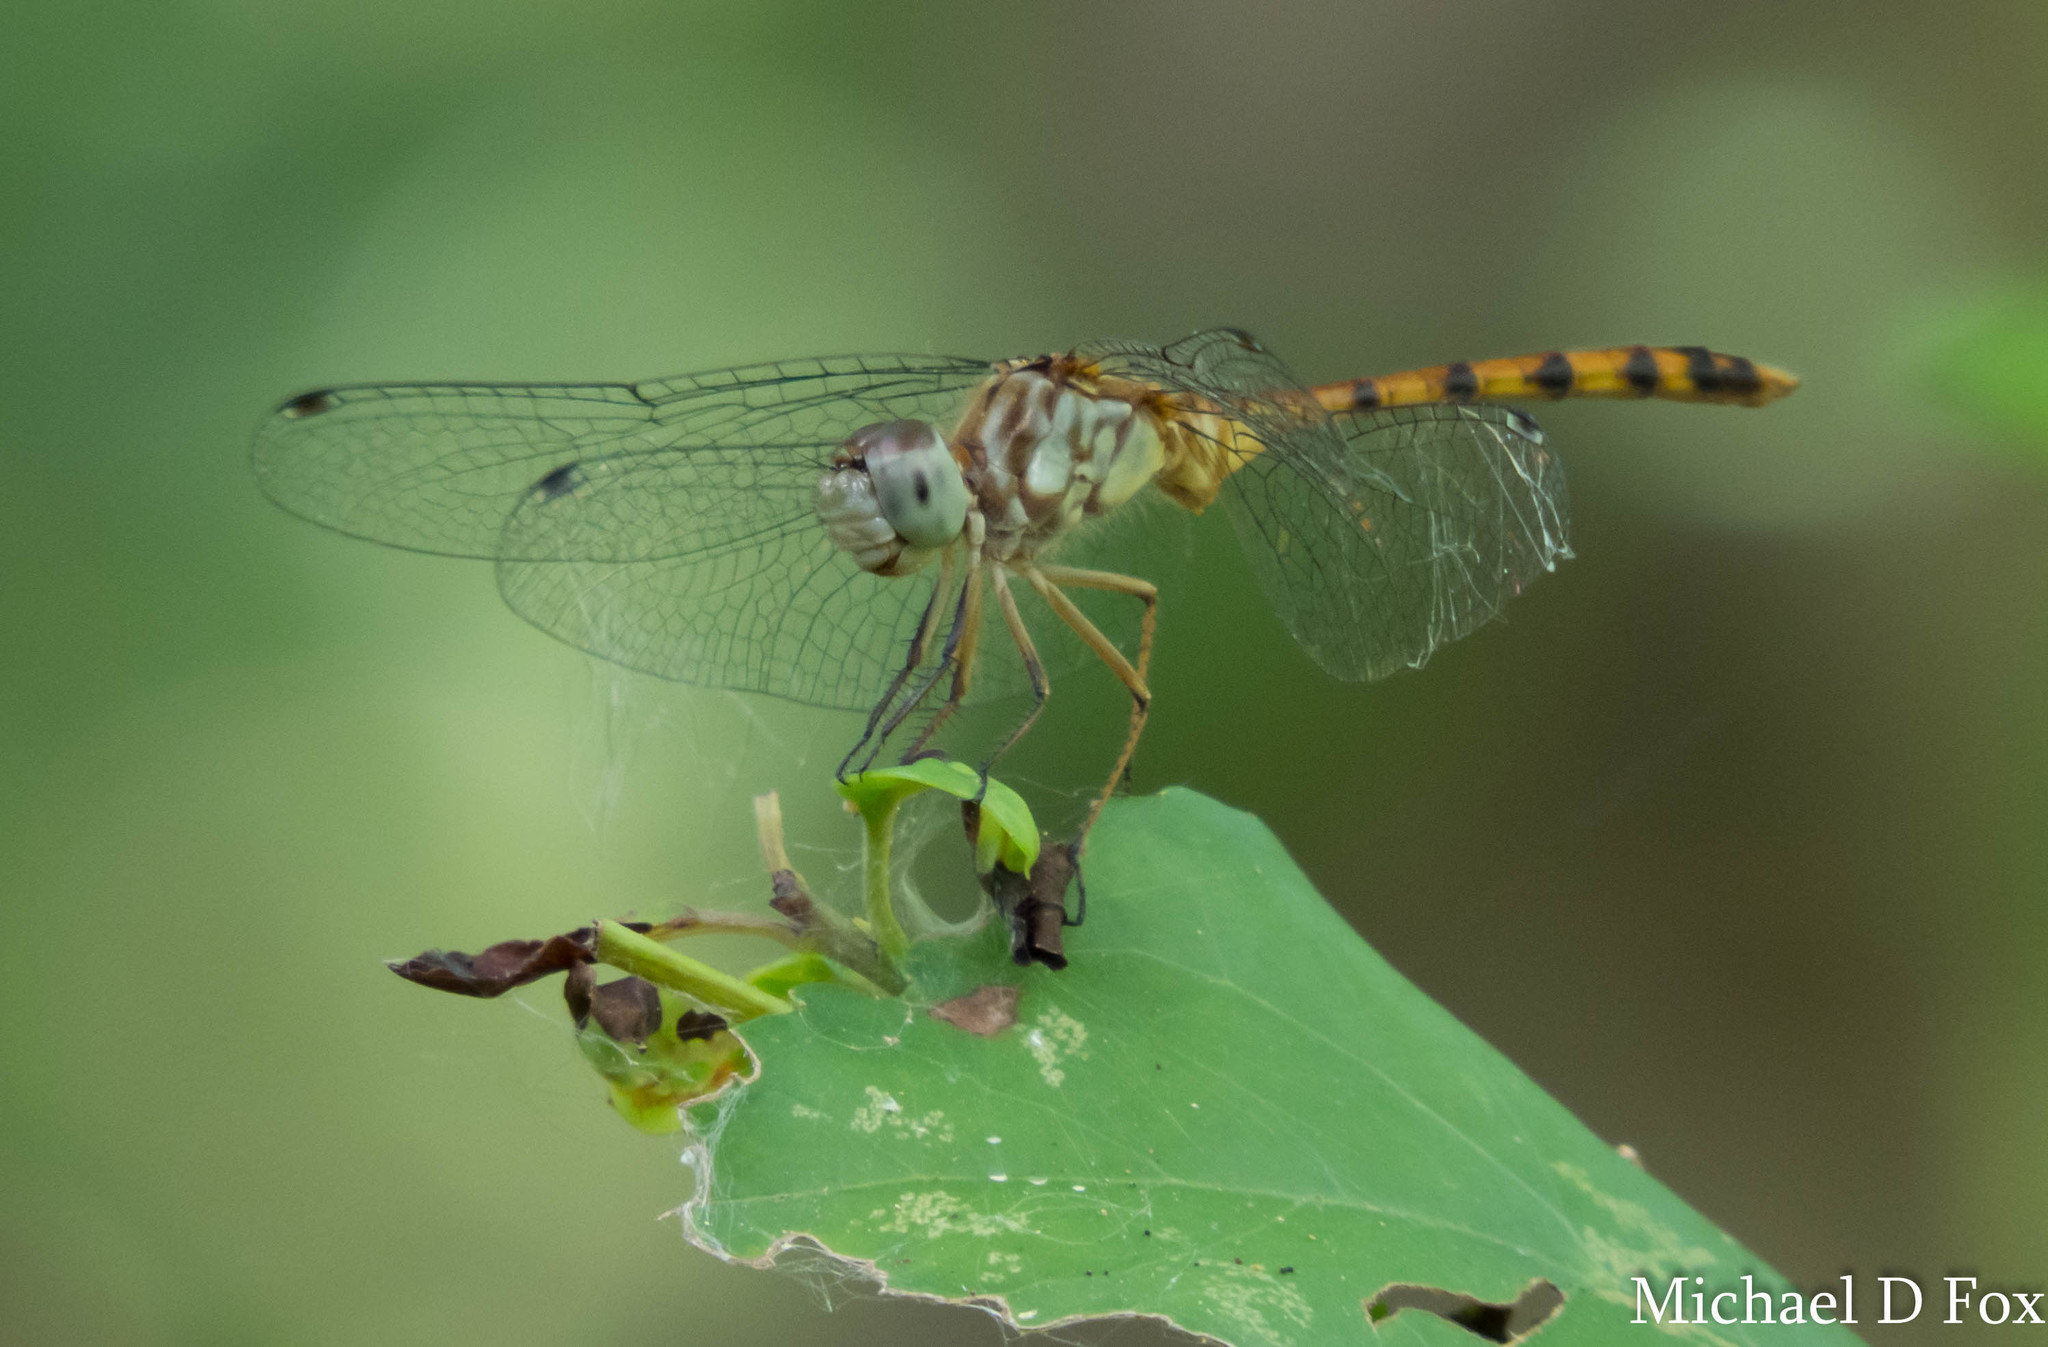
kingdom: Animalia
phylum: Arthropoda
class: Insecta
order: Odonata
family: Libellulidae
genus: Sympetrum
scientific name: Sympetrum ambiguum
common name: Blue-faced meadowhawk
